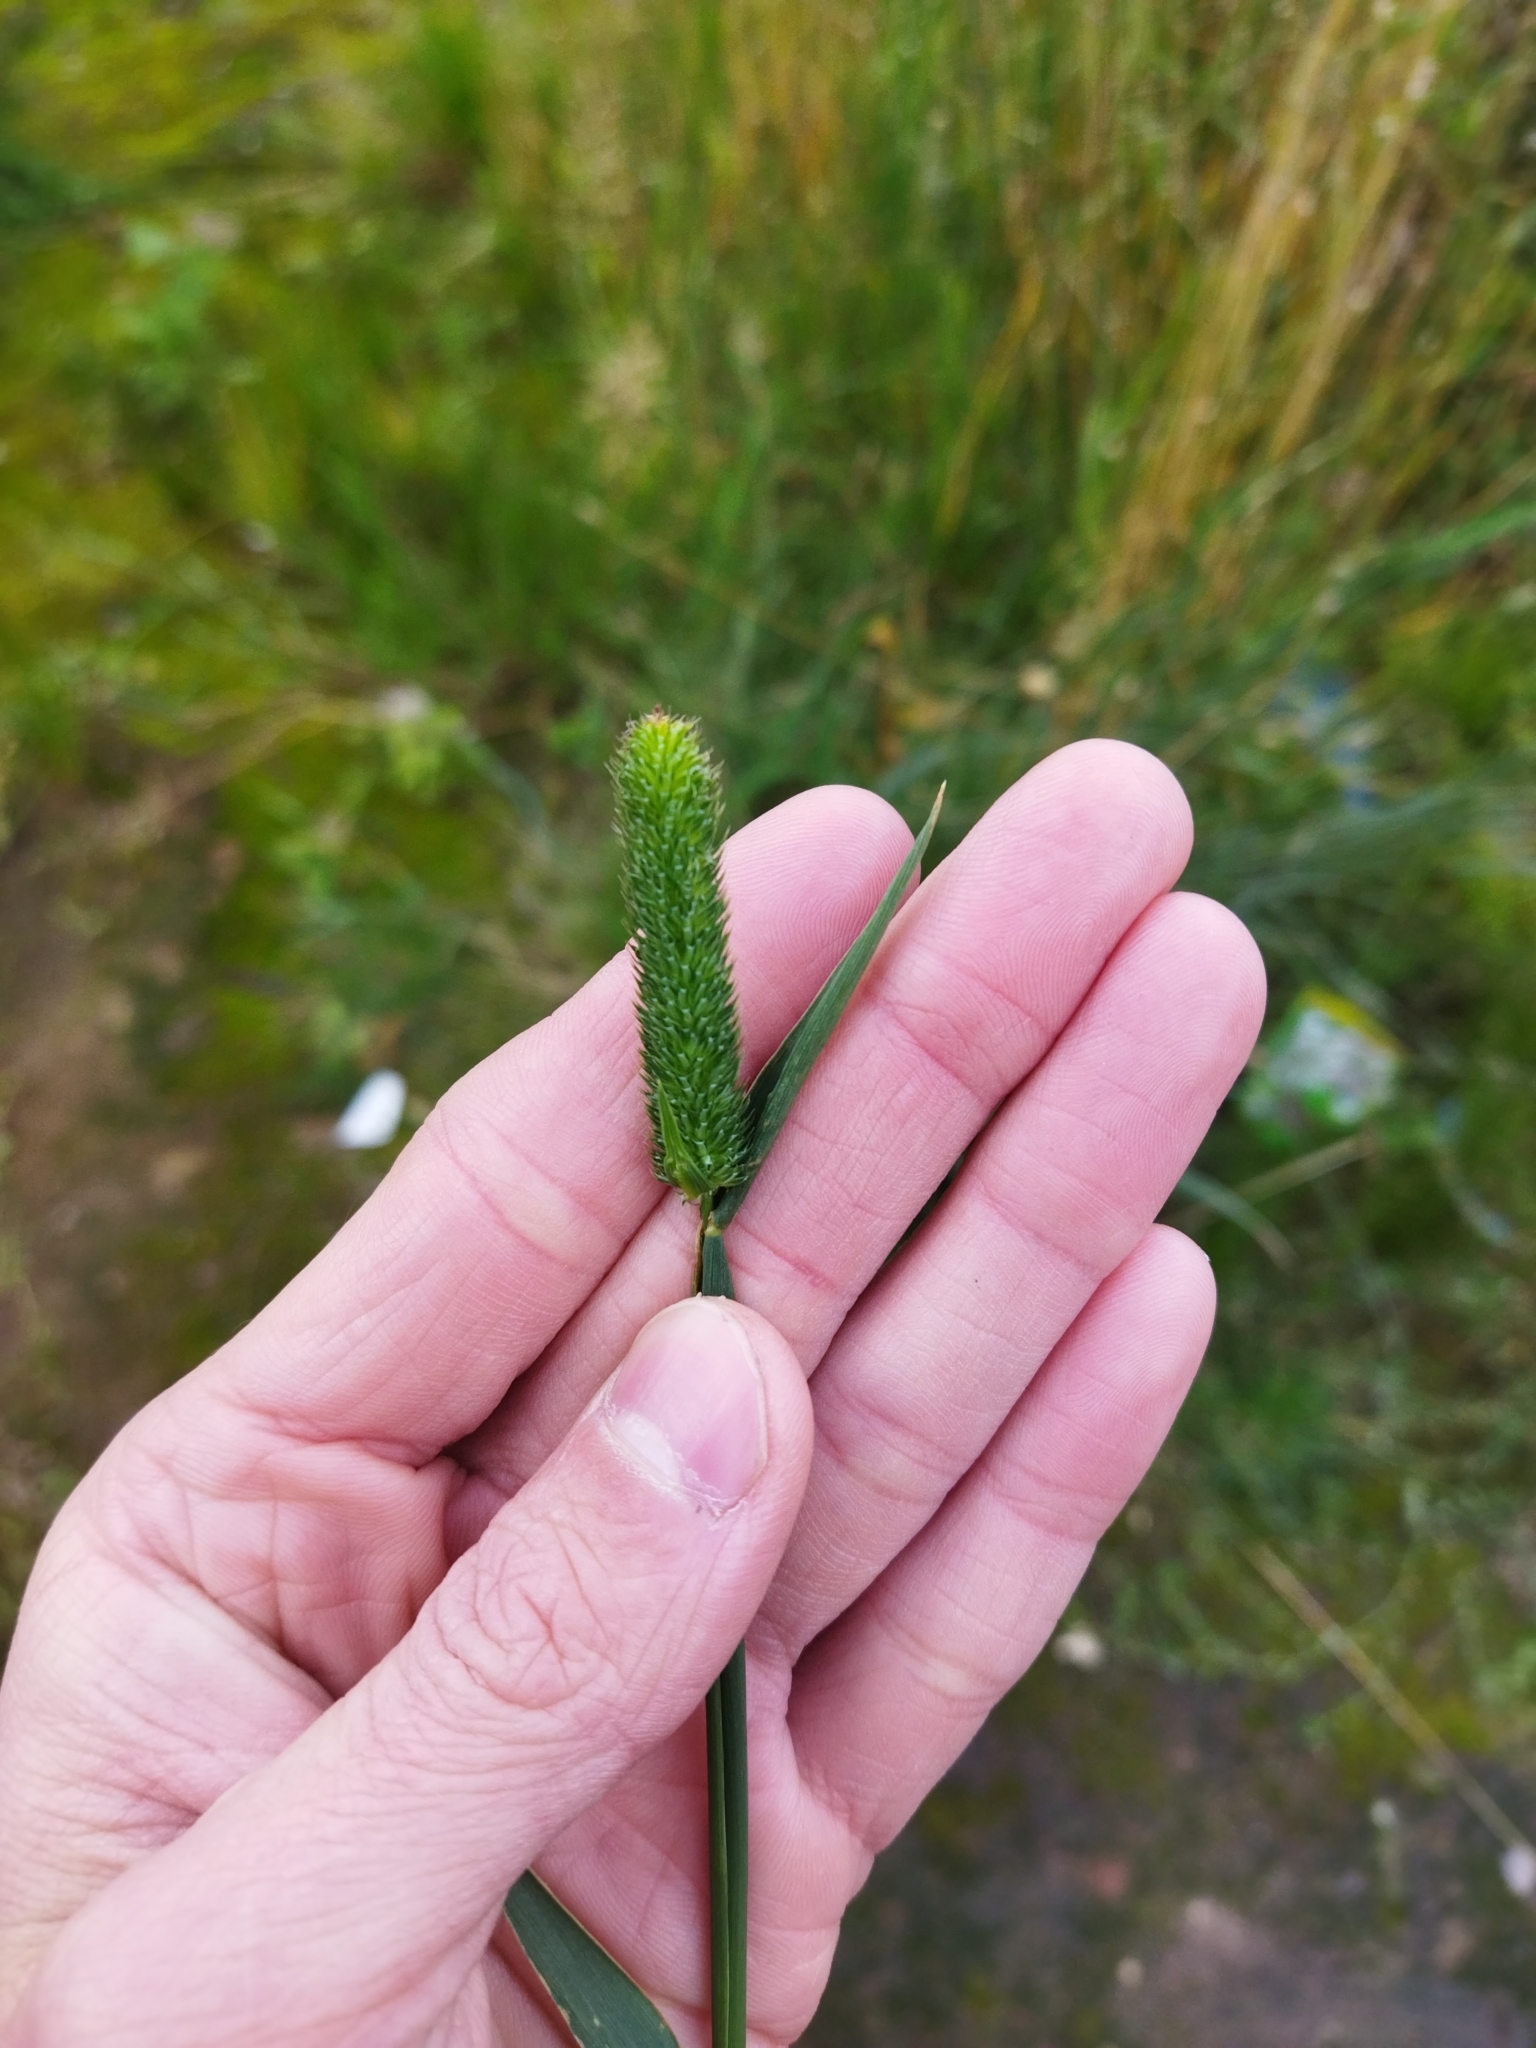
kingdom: Plantae
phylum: Tracheophyta
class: Liliopsida
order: Poales
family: Poaceae
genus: Phleum
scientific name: Phleum pratense
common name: Timothy grass
